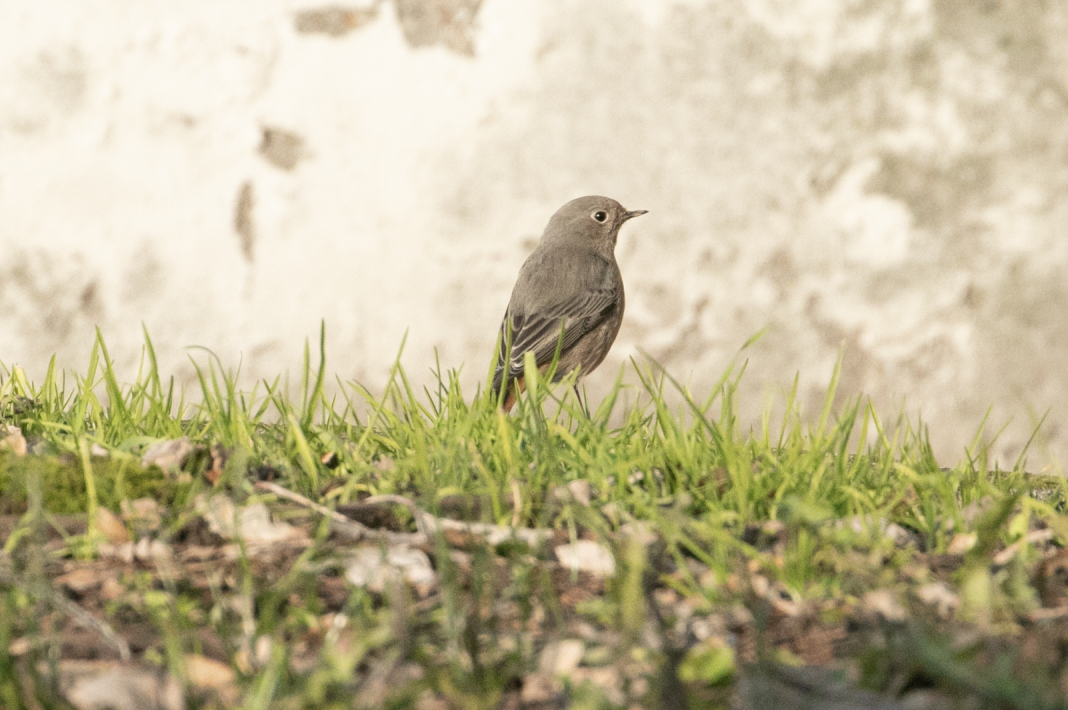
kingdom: Animalia
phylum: Chordata
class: Aves
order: Passeriformes
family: Muscicapidae
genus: Phoenicurus
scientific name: Phoenicurus ochruros
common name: Black redstart
